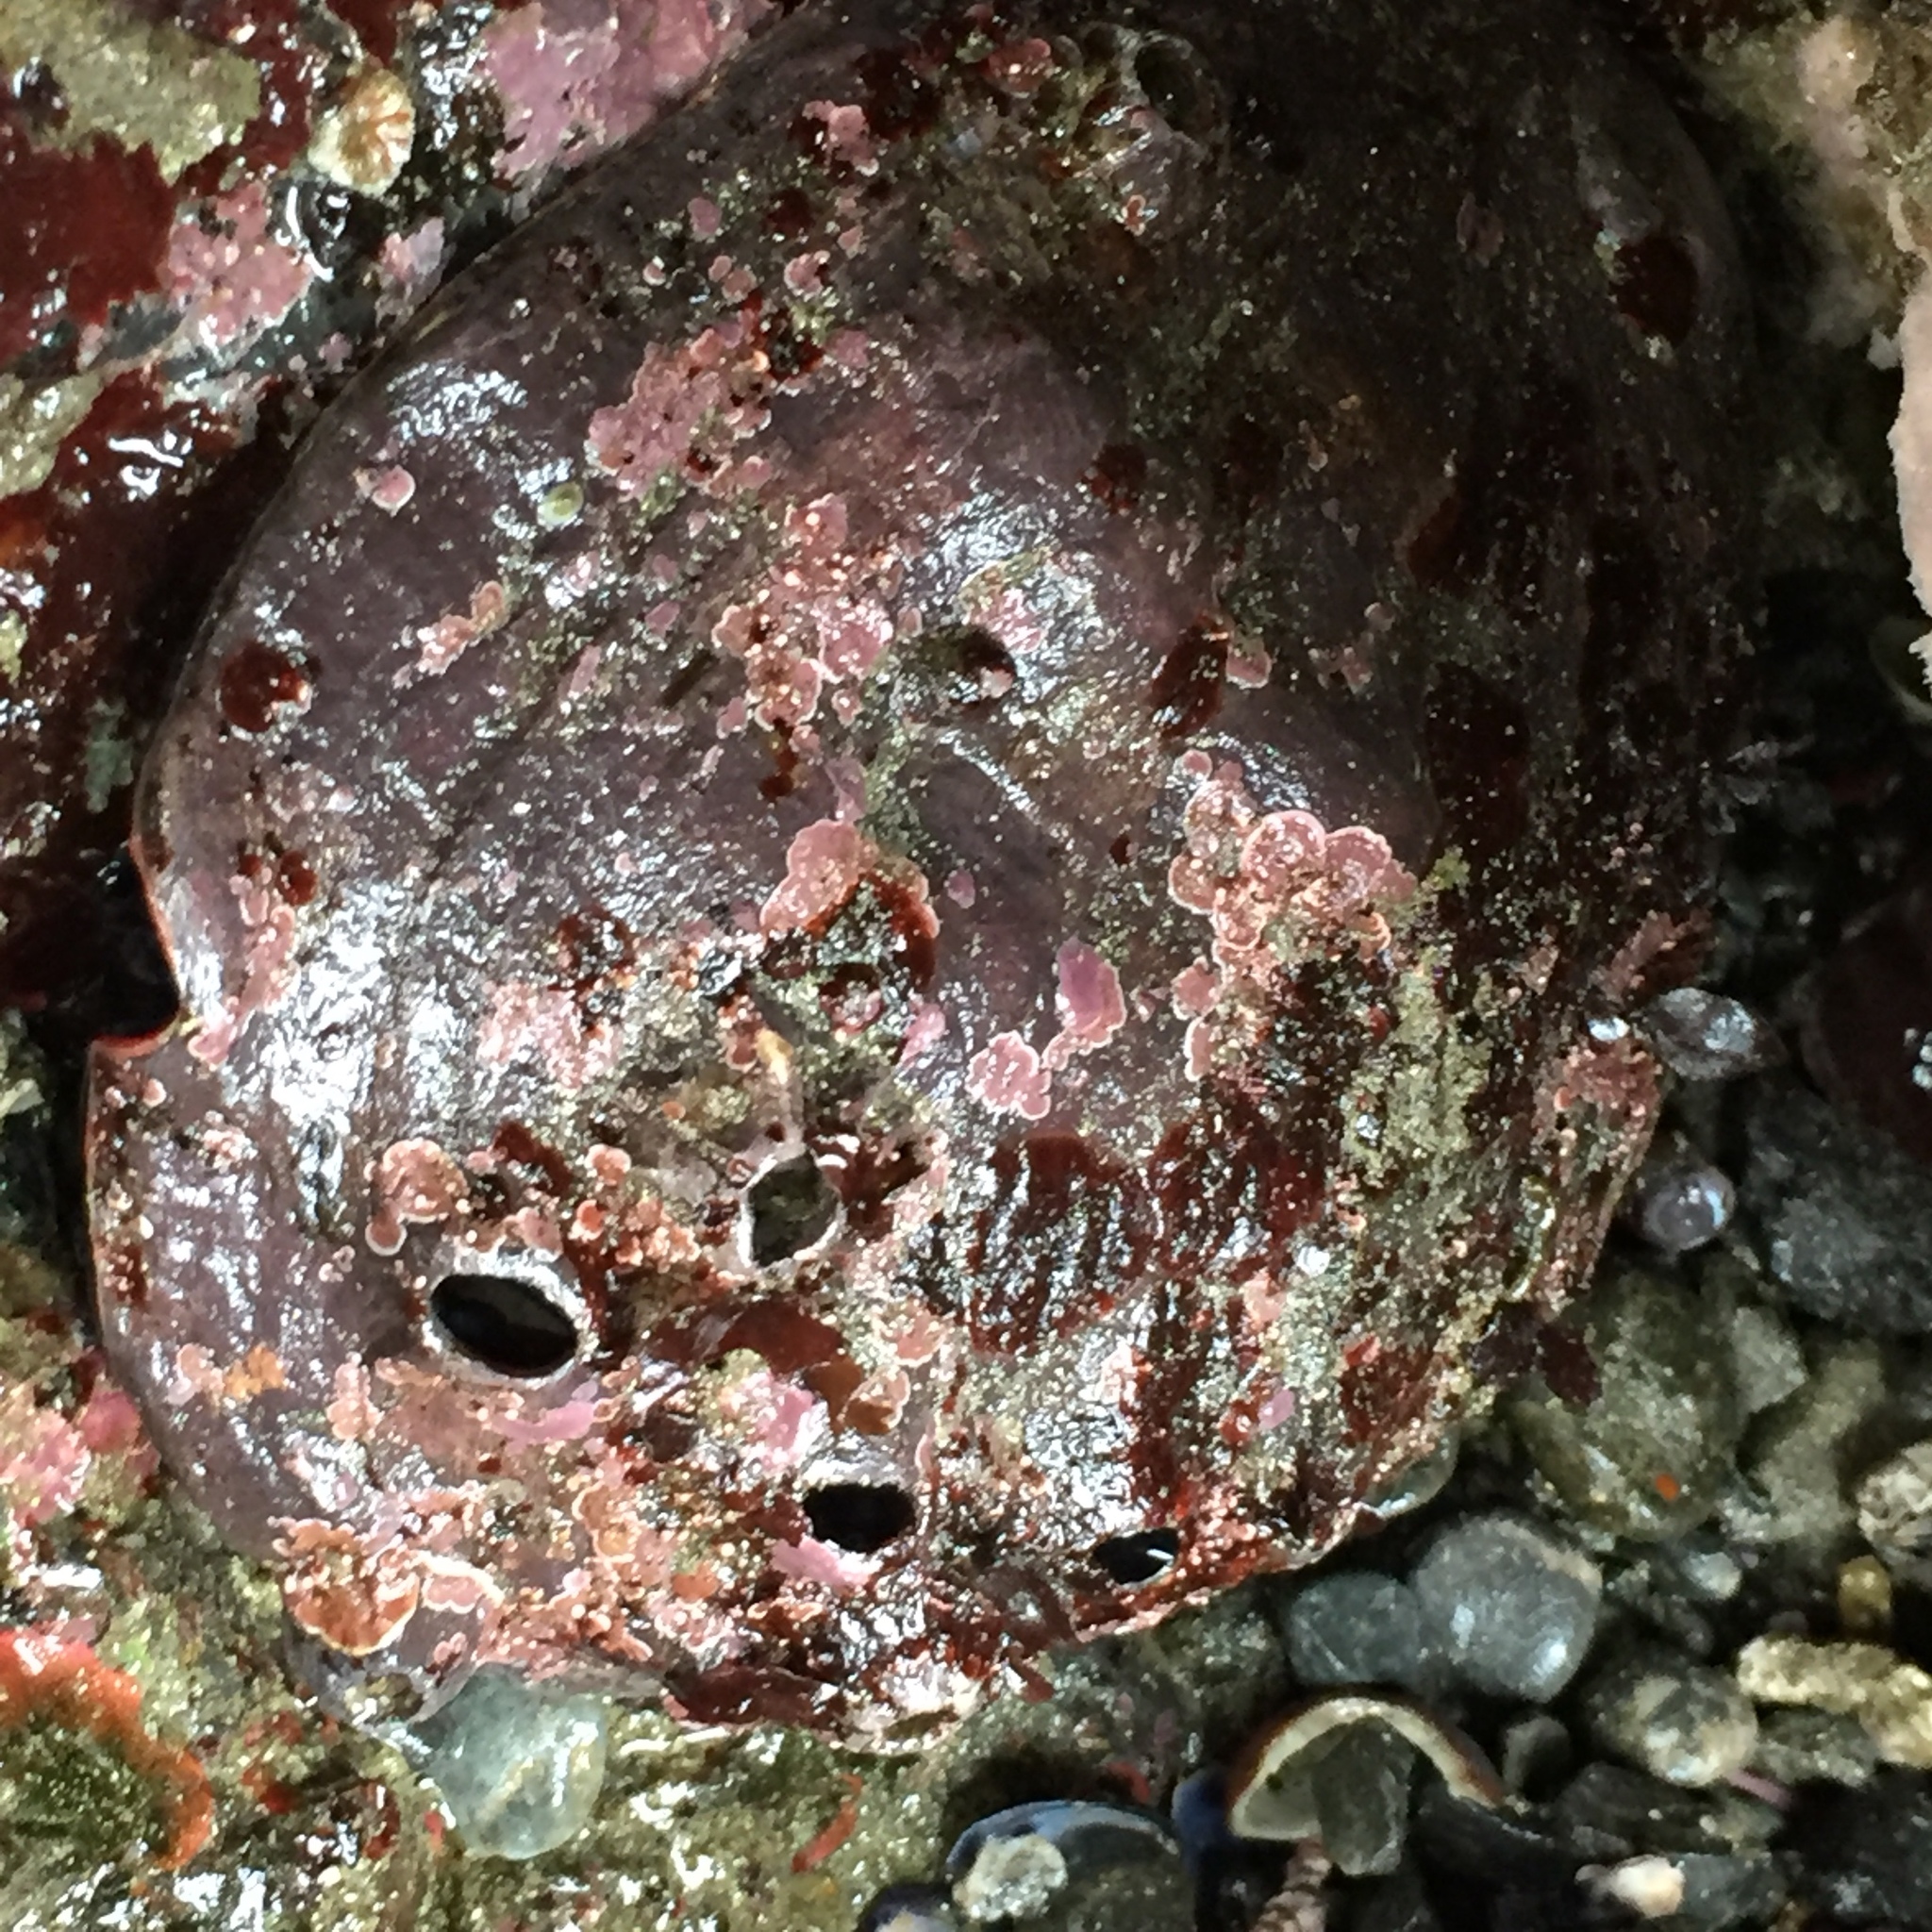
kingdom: Animalia
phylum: Mollusca
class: Gastropoda
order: Lepetellida
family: Haliotidae
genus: Haliotis
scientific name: Haliotis rufescens
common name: Red abalone
